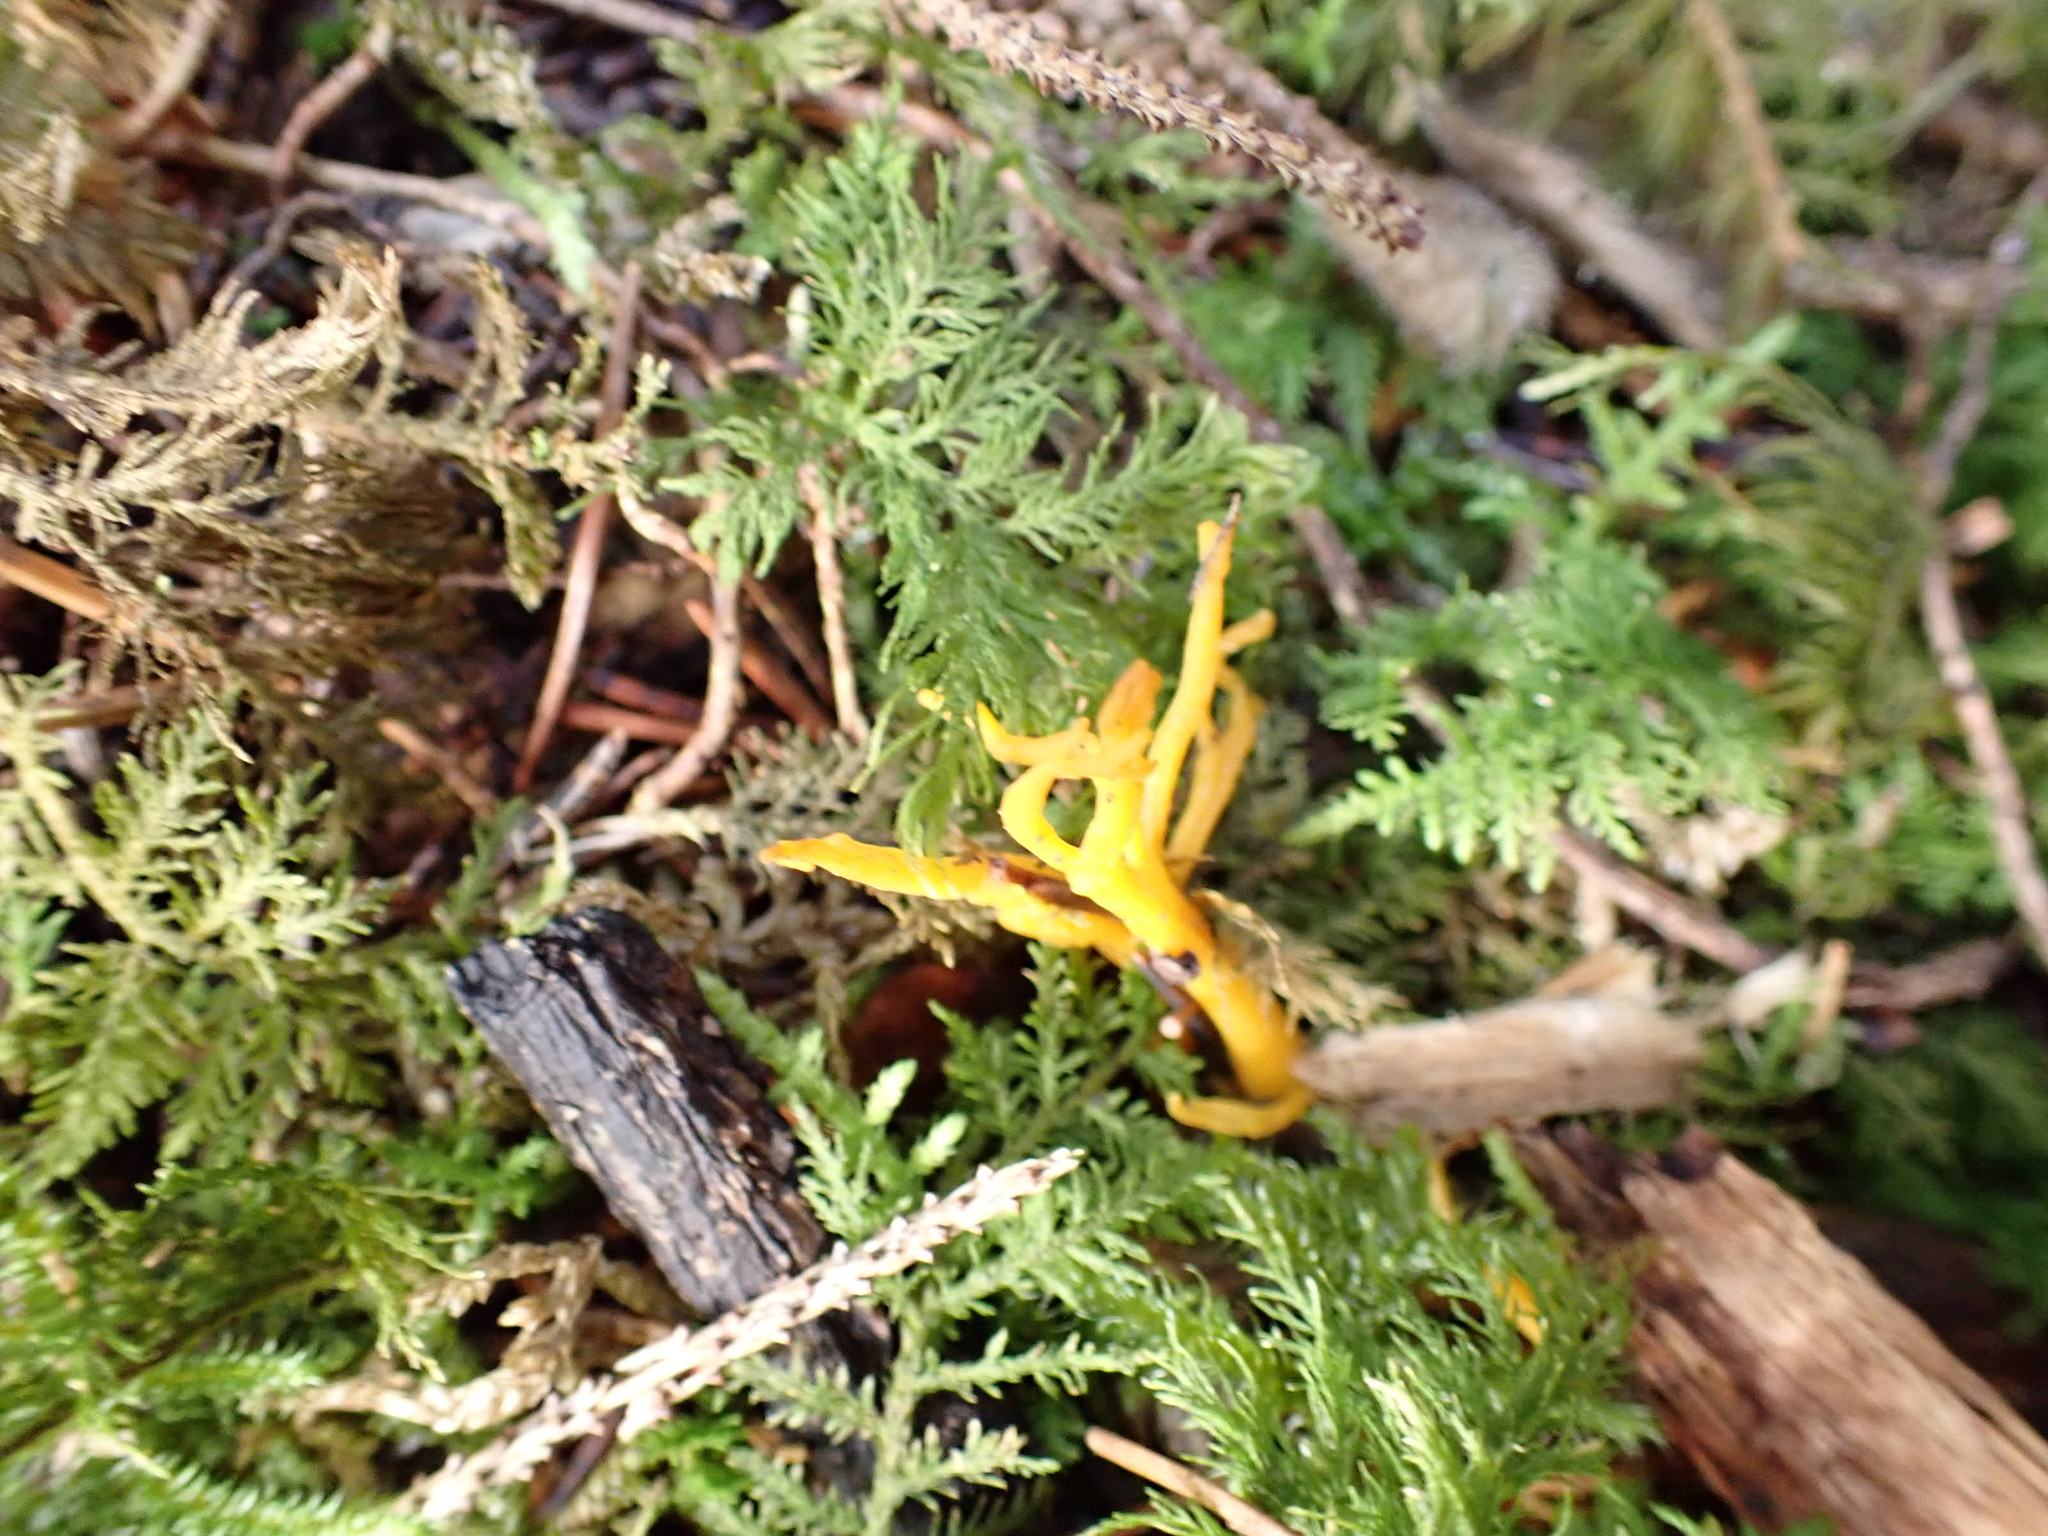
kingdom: Fungi
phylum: Basidiomycota
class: Dacrymycetes
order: Dacrymycetales
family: Dacrymycetaceae
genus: Calocera
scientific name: Calocera viscosa
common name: Yellow stagshorn
